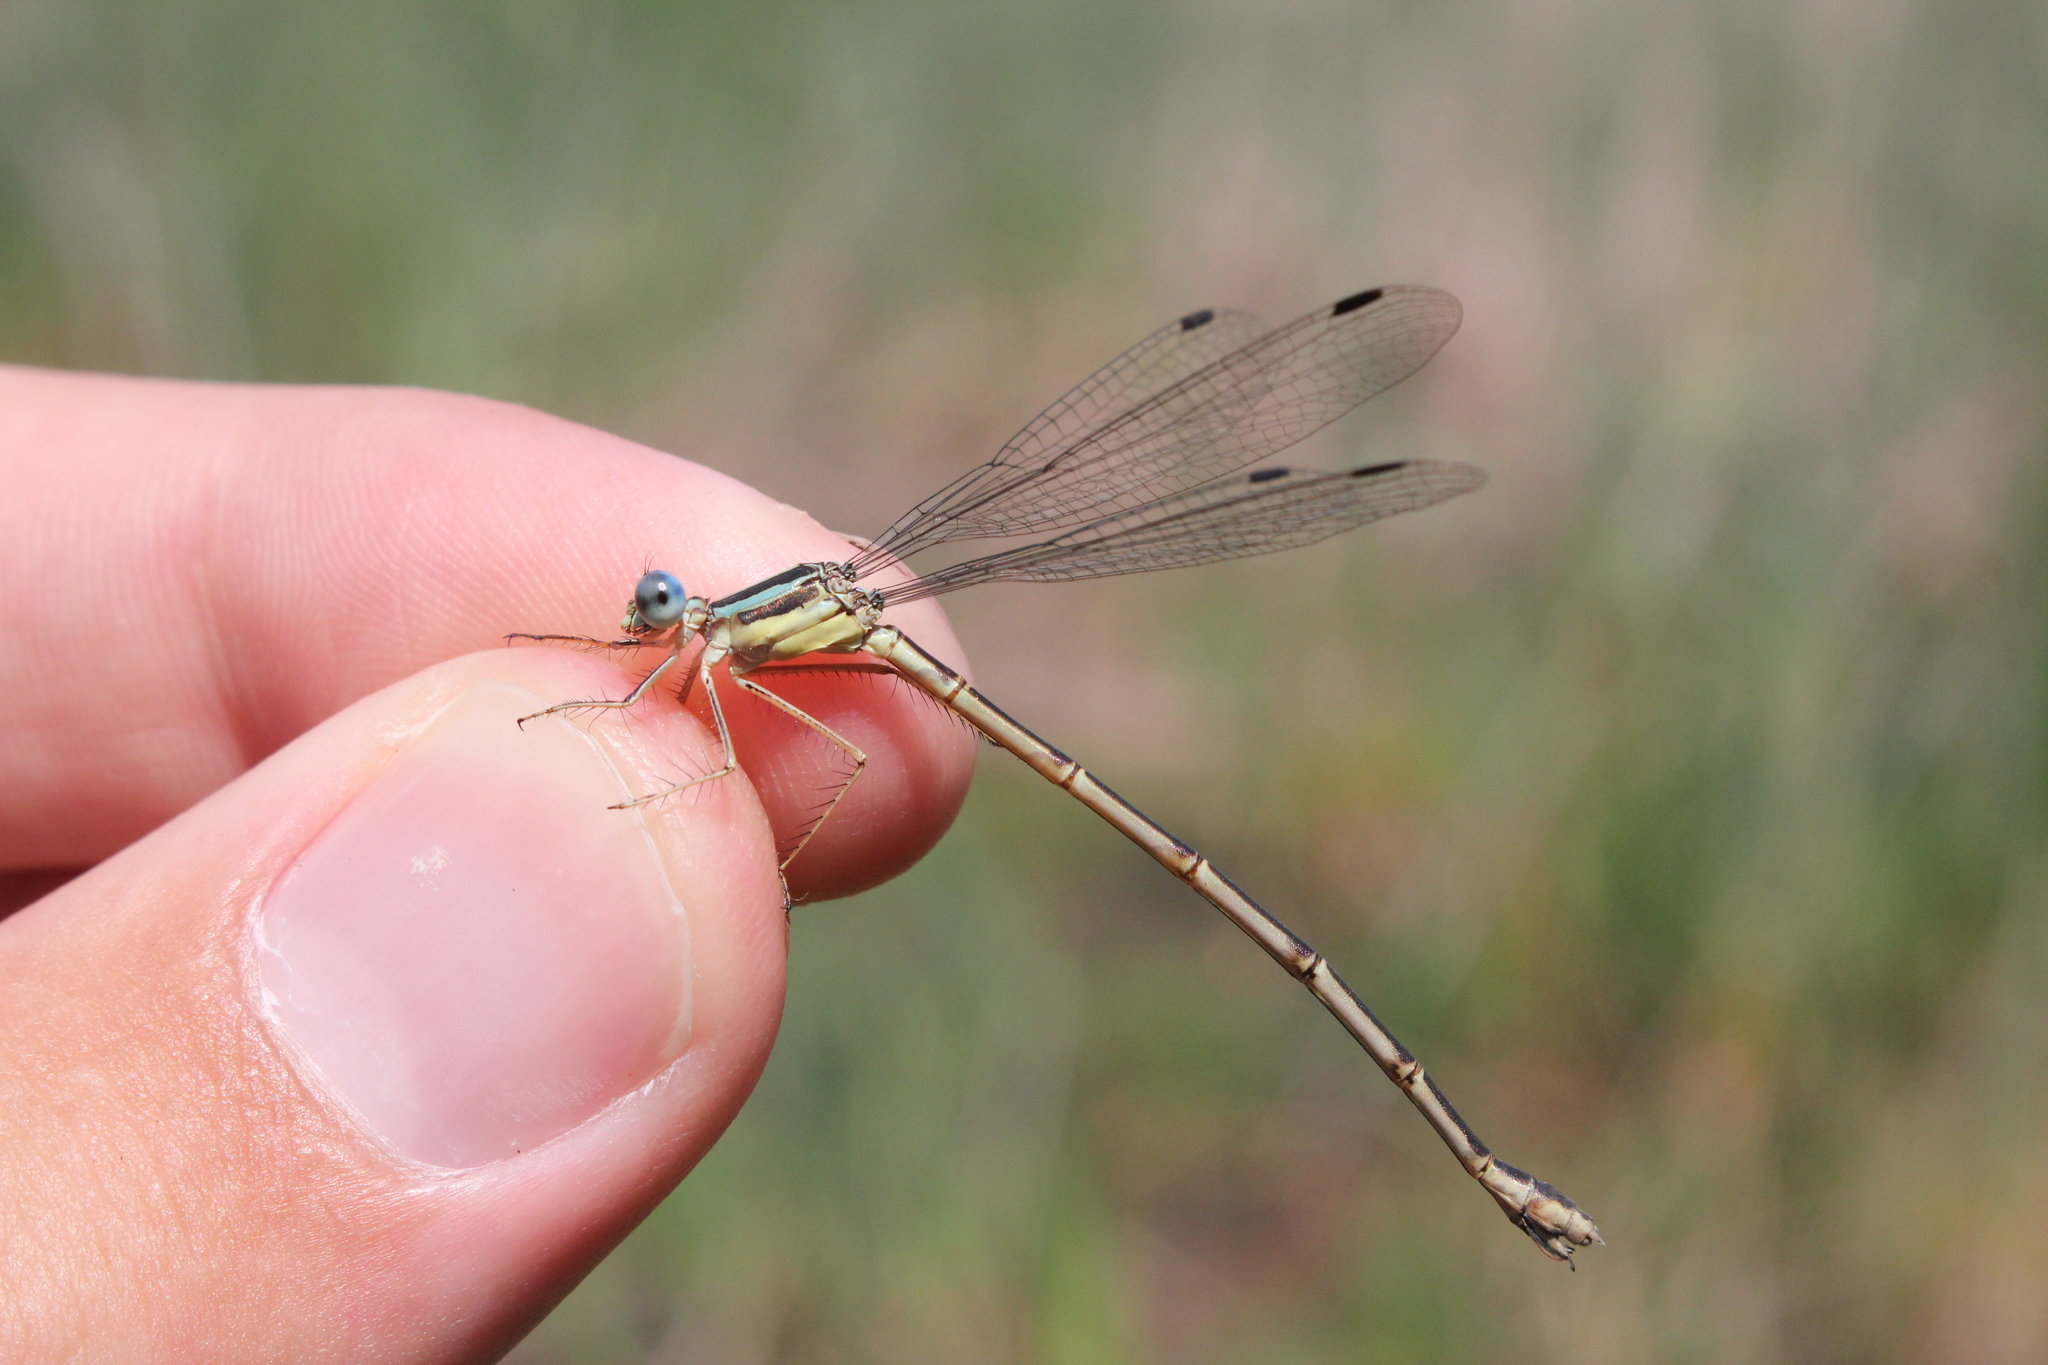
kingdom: Animalia
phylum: Arthropoda
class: Insecta
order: Odonata
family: Lestidae
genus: Lestes
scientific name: Lestes rectangularis
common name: Slender spreadwing
